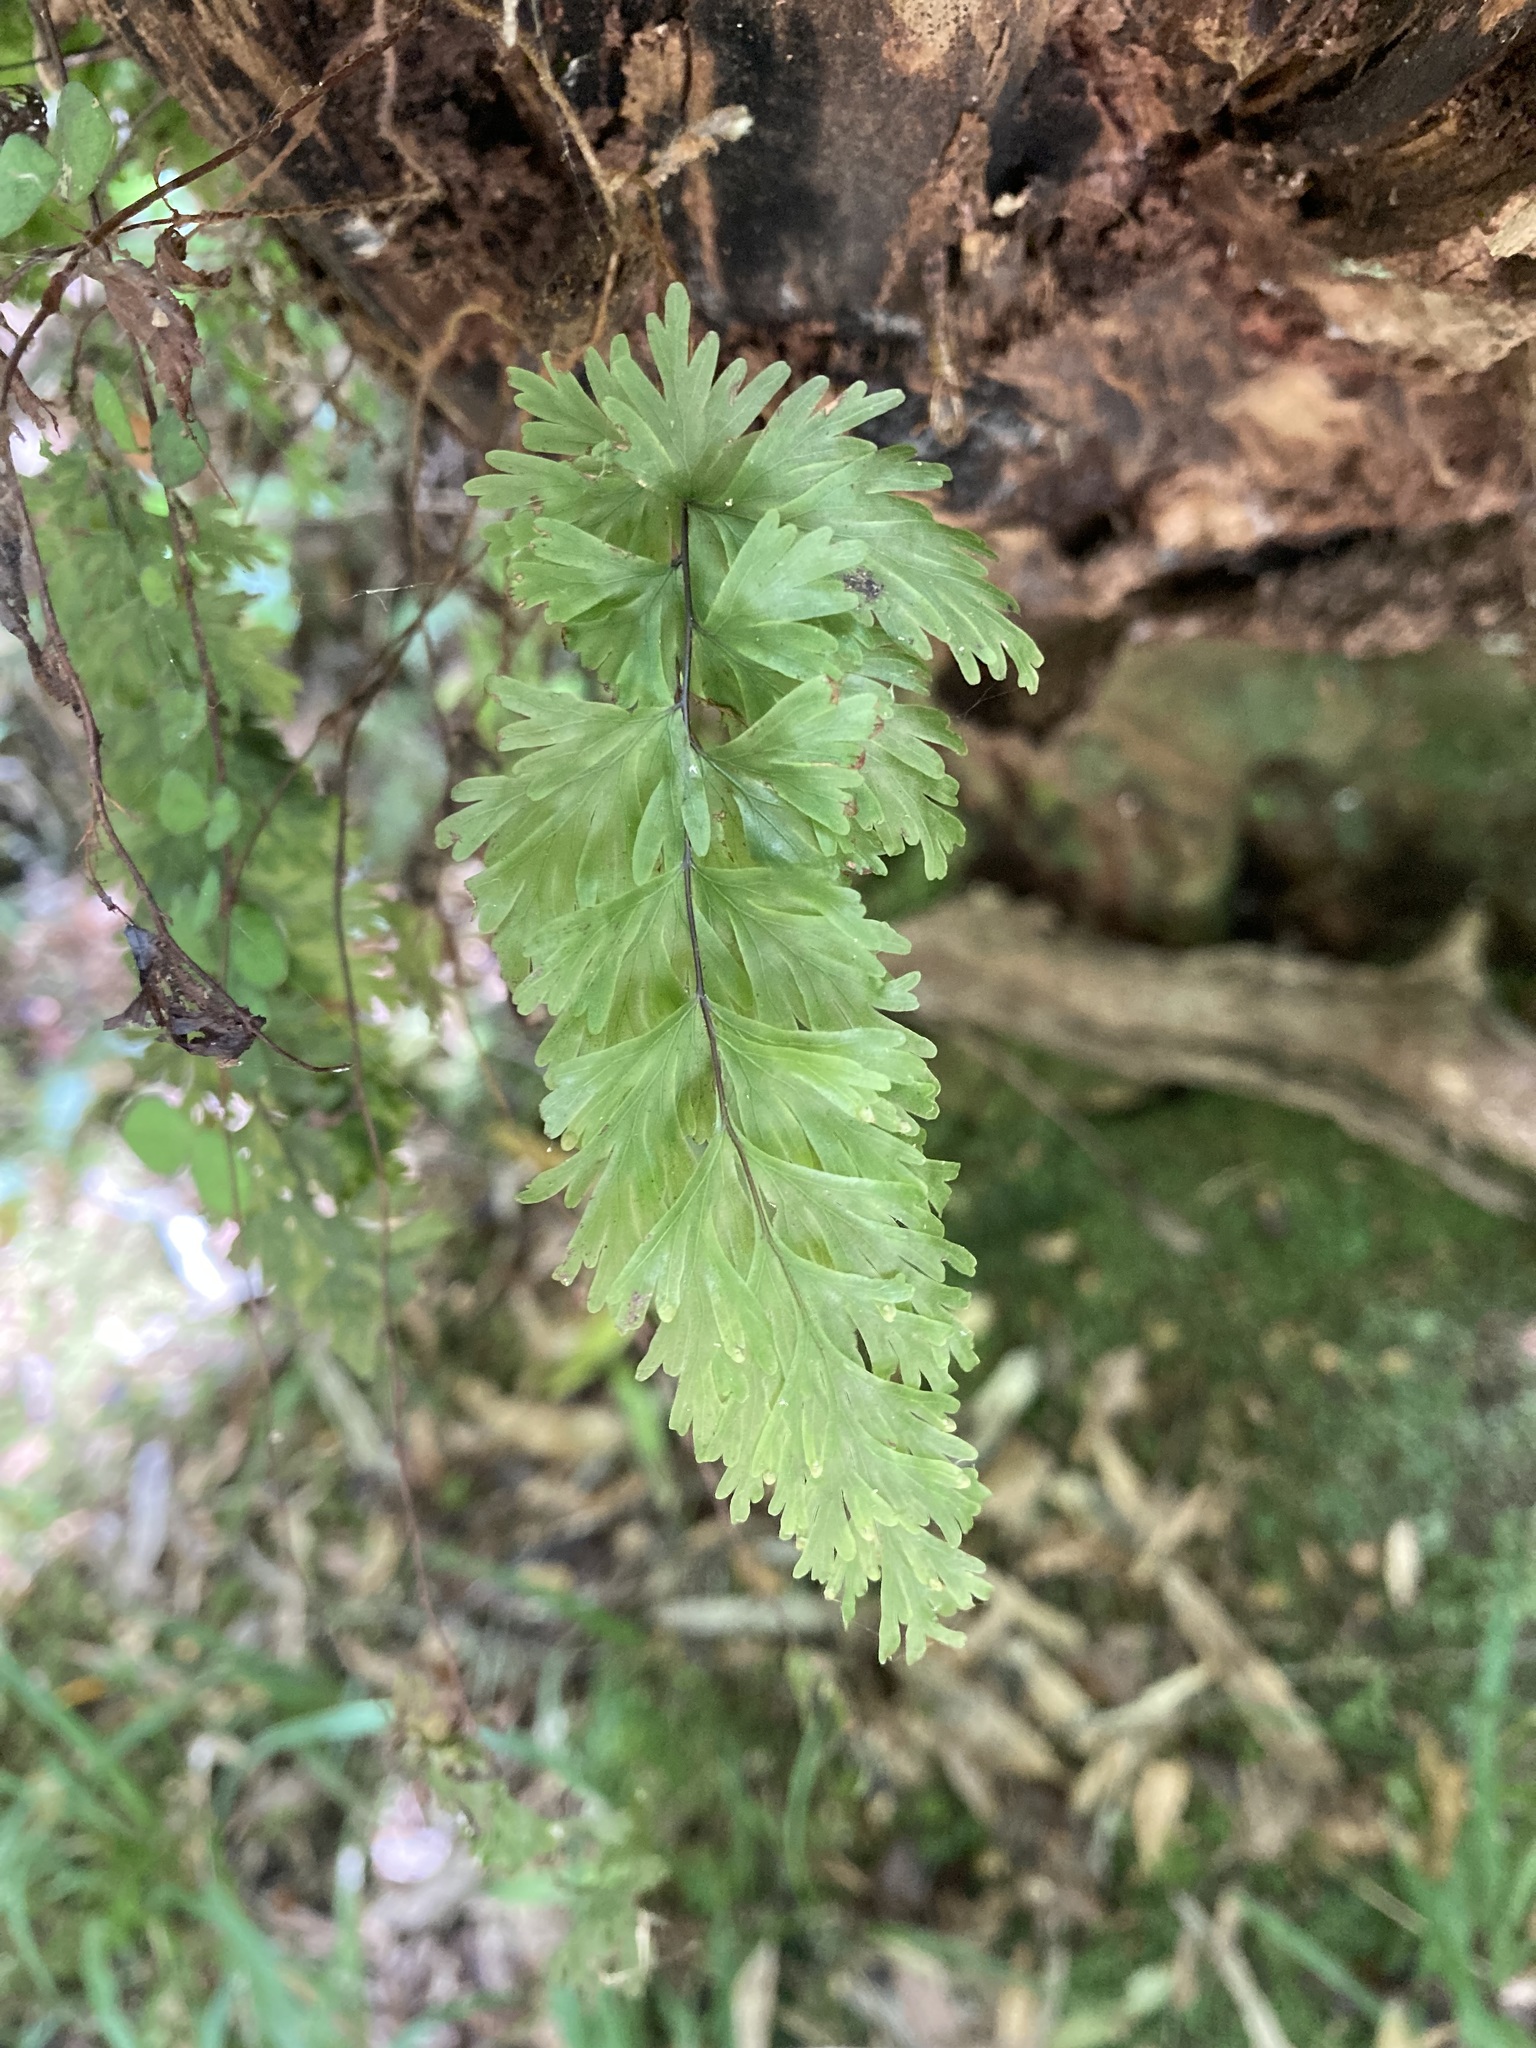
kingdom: Plantae
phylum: Tracheophyta
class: Polypodiopsida
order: Hymenophyllales
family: Hymenophyllaceae
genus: Hymenophyllum
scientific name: Hymenophyllum flabellatum
